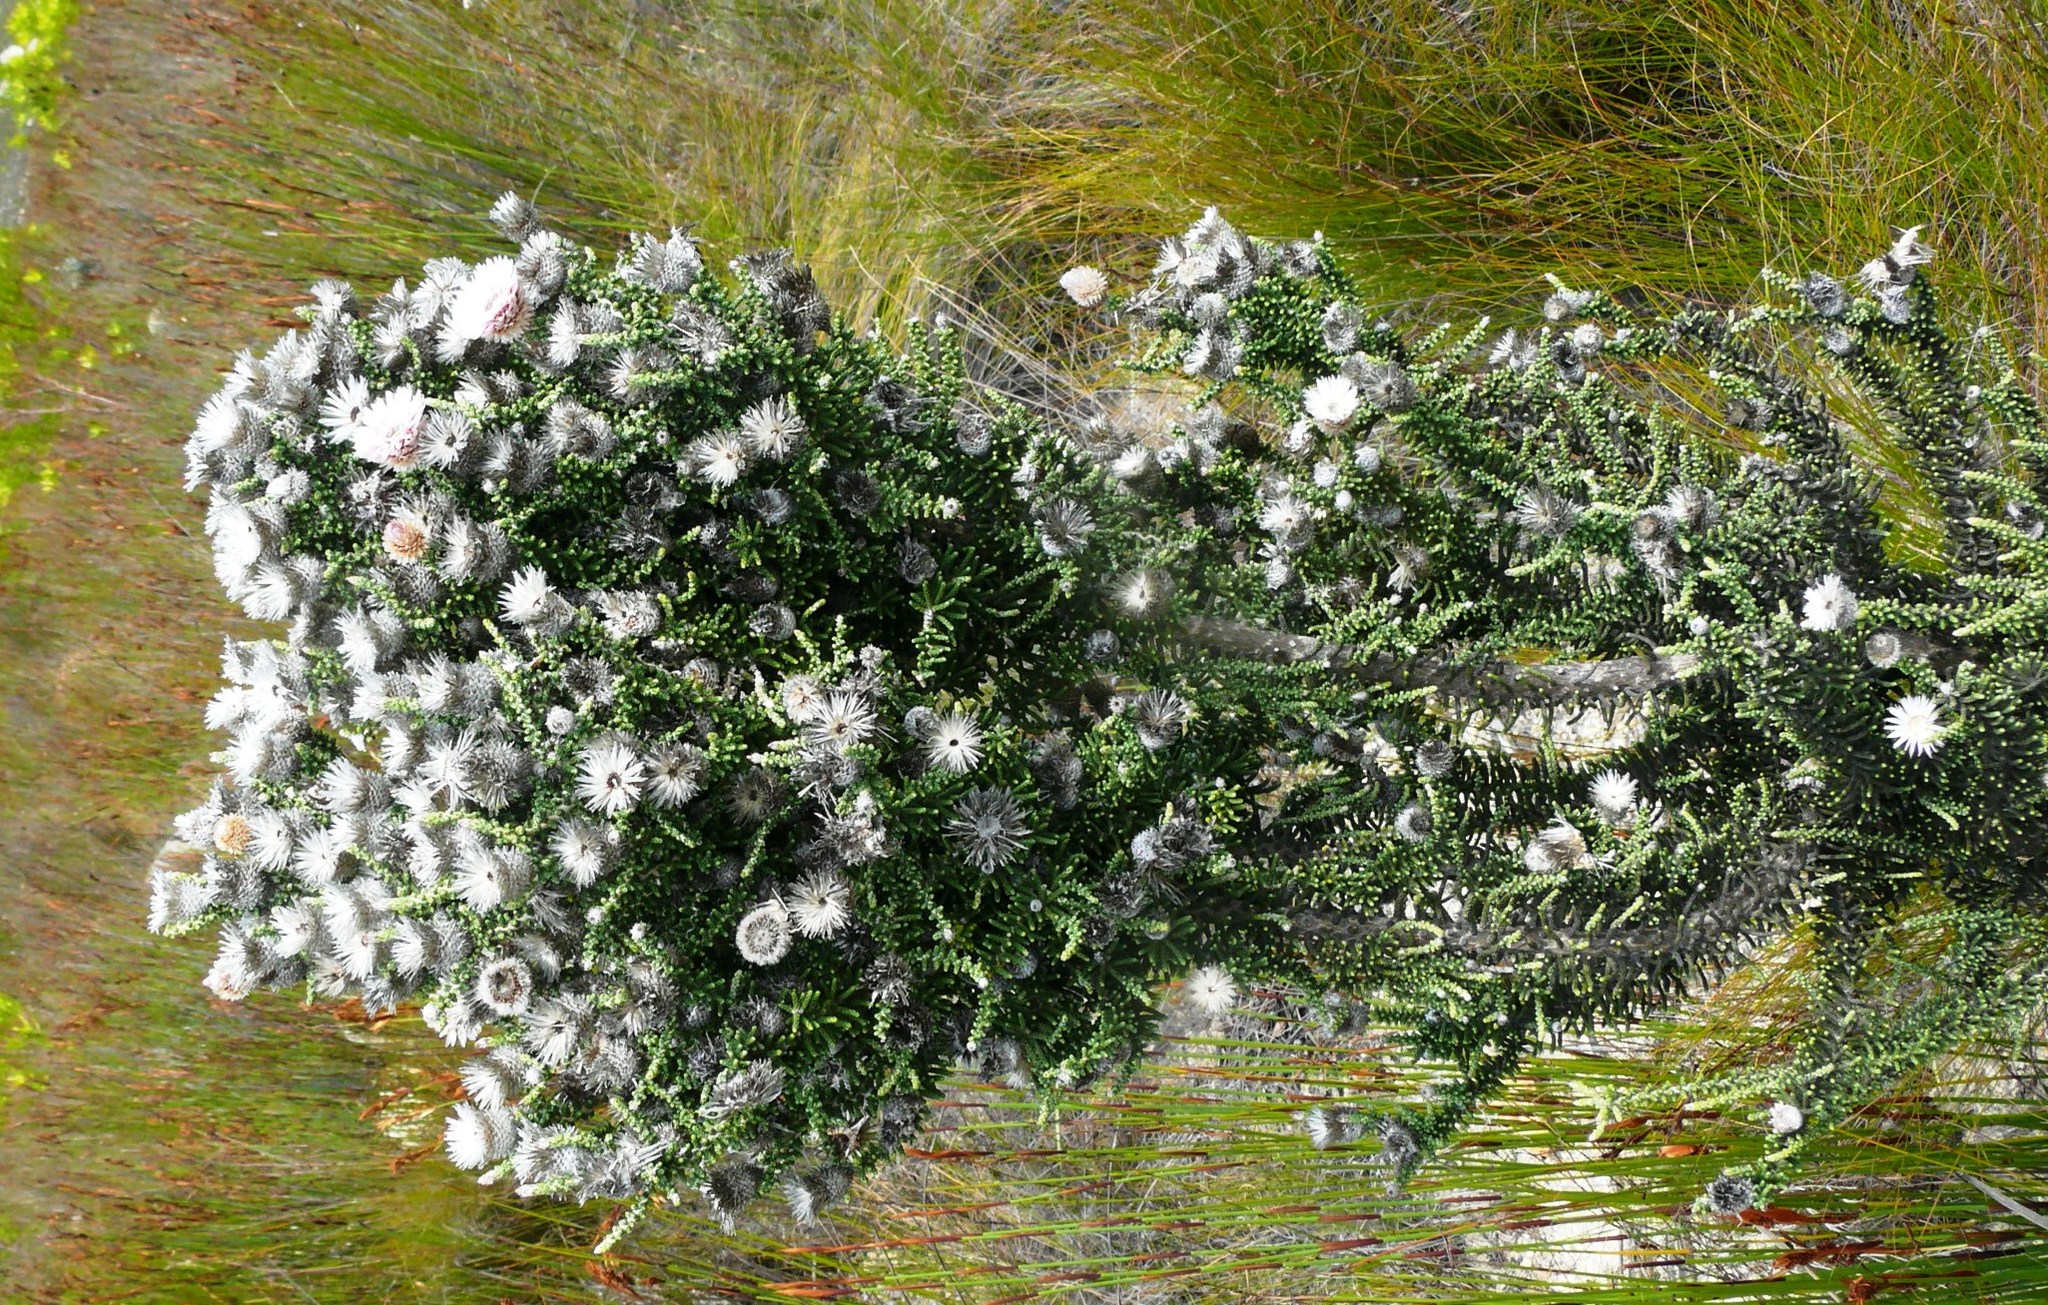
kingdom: Plantae
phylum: Tracheophyta
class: Magnoliopsida
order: Asterales
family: Asteraceae
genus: Phaenocoma
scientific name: Phaenocoma prolifera
